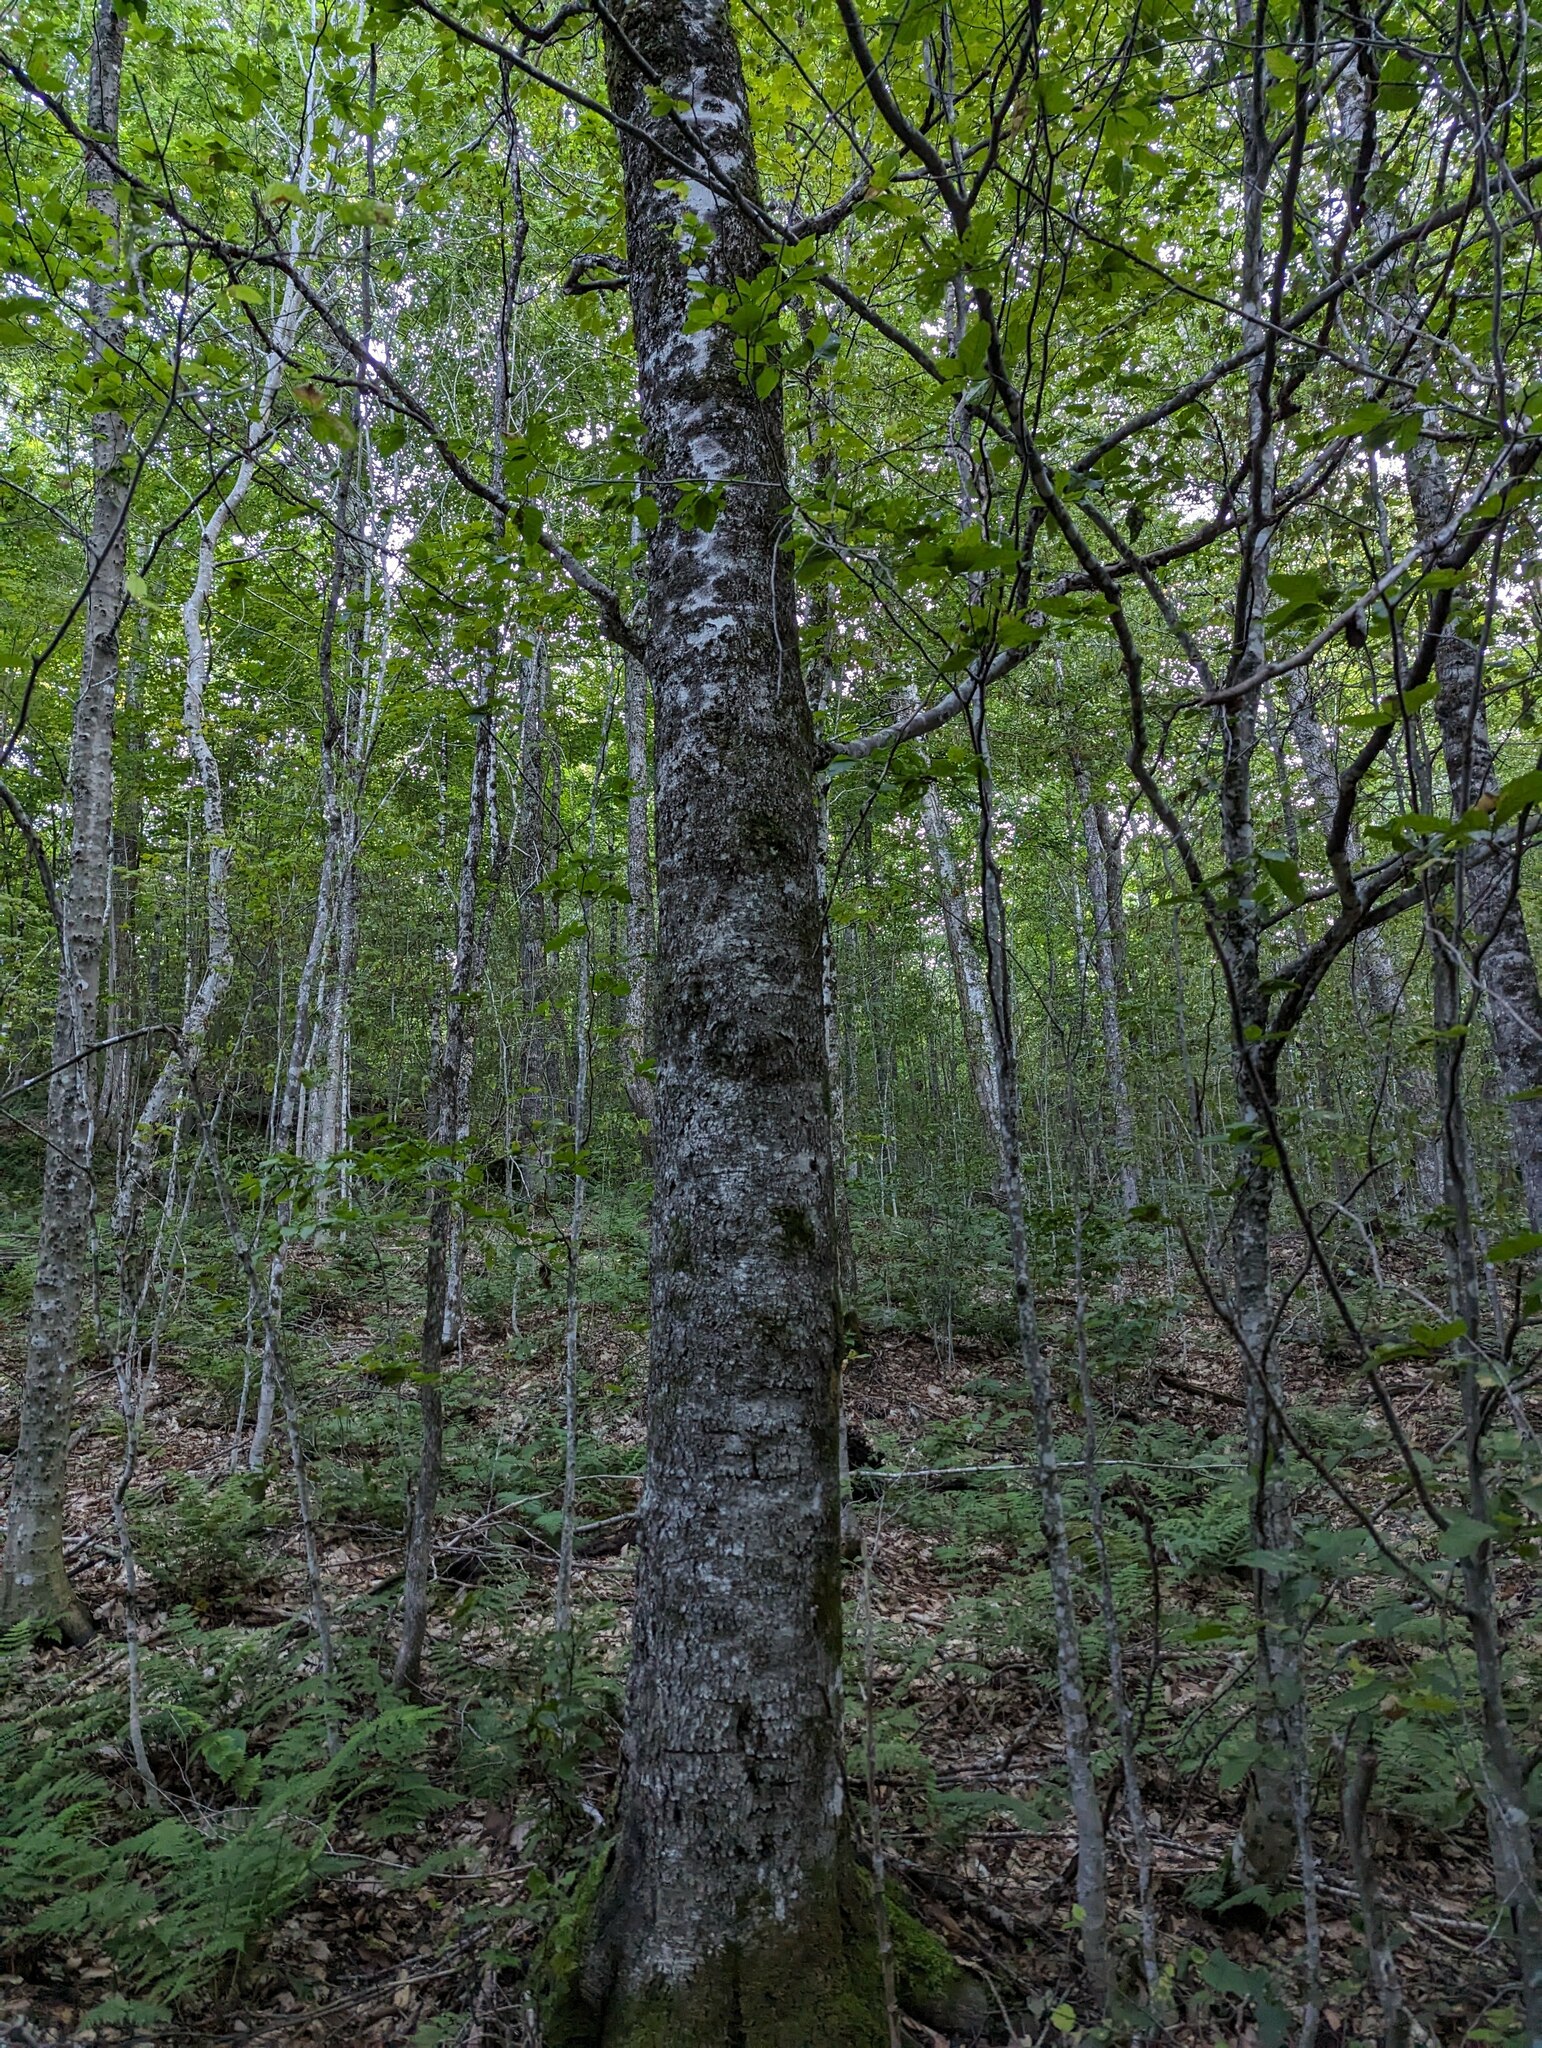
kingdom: Plantae
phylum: Tracheophyta
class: Magnoliopsida
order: Fagales
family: Fagaceae
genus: Fagus
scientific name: Fagus grandifolia
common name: American beech
